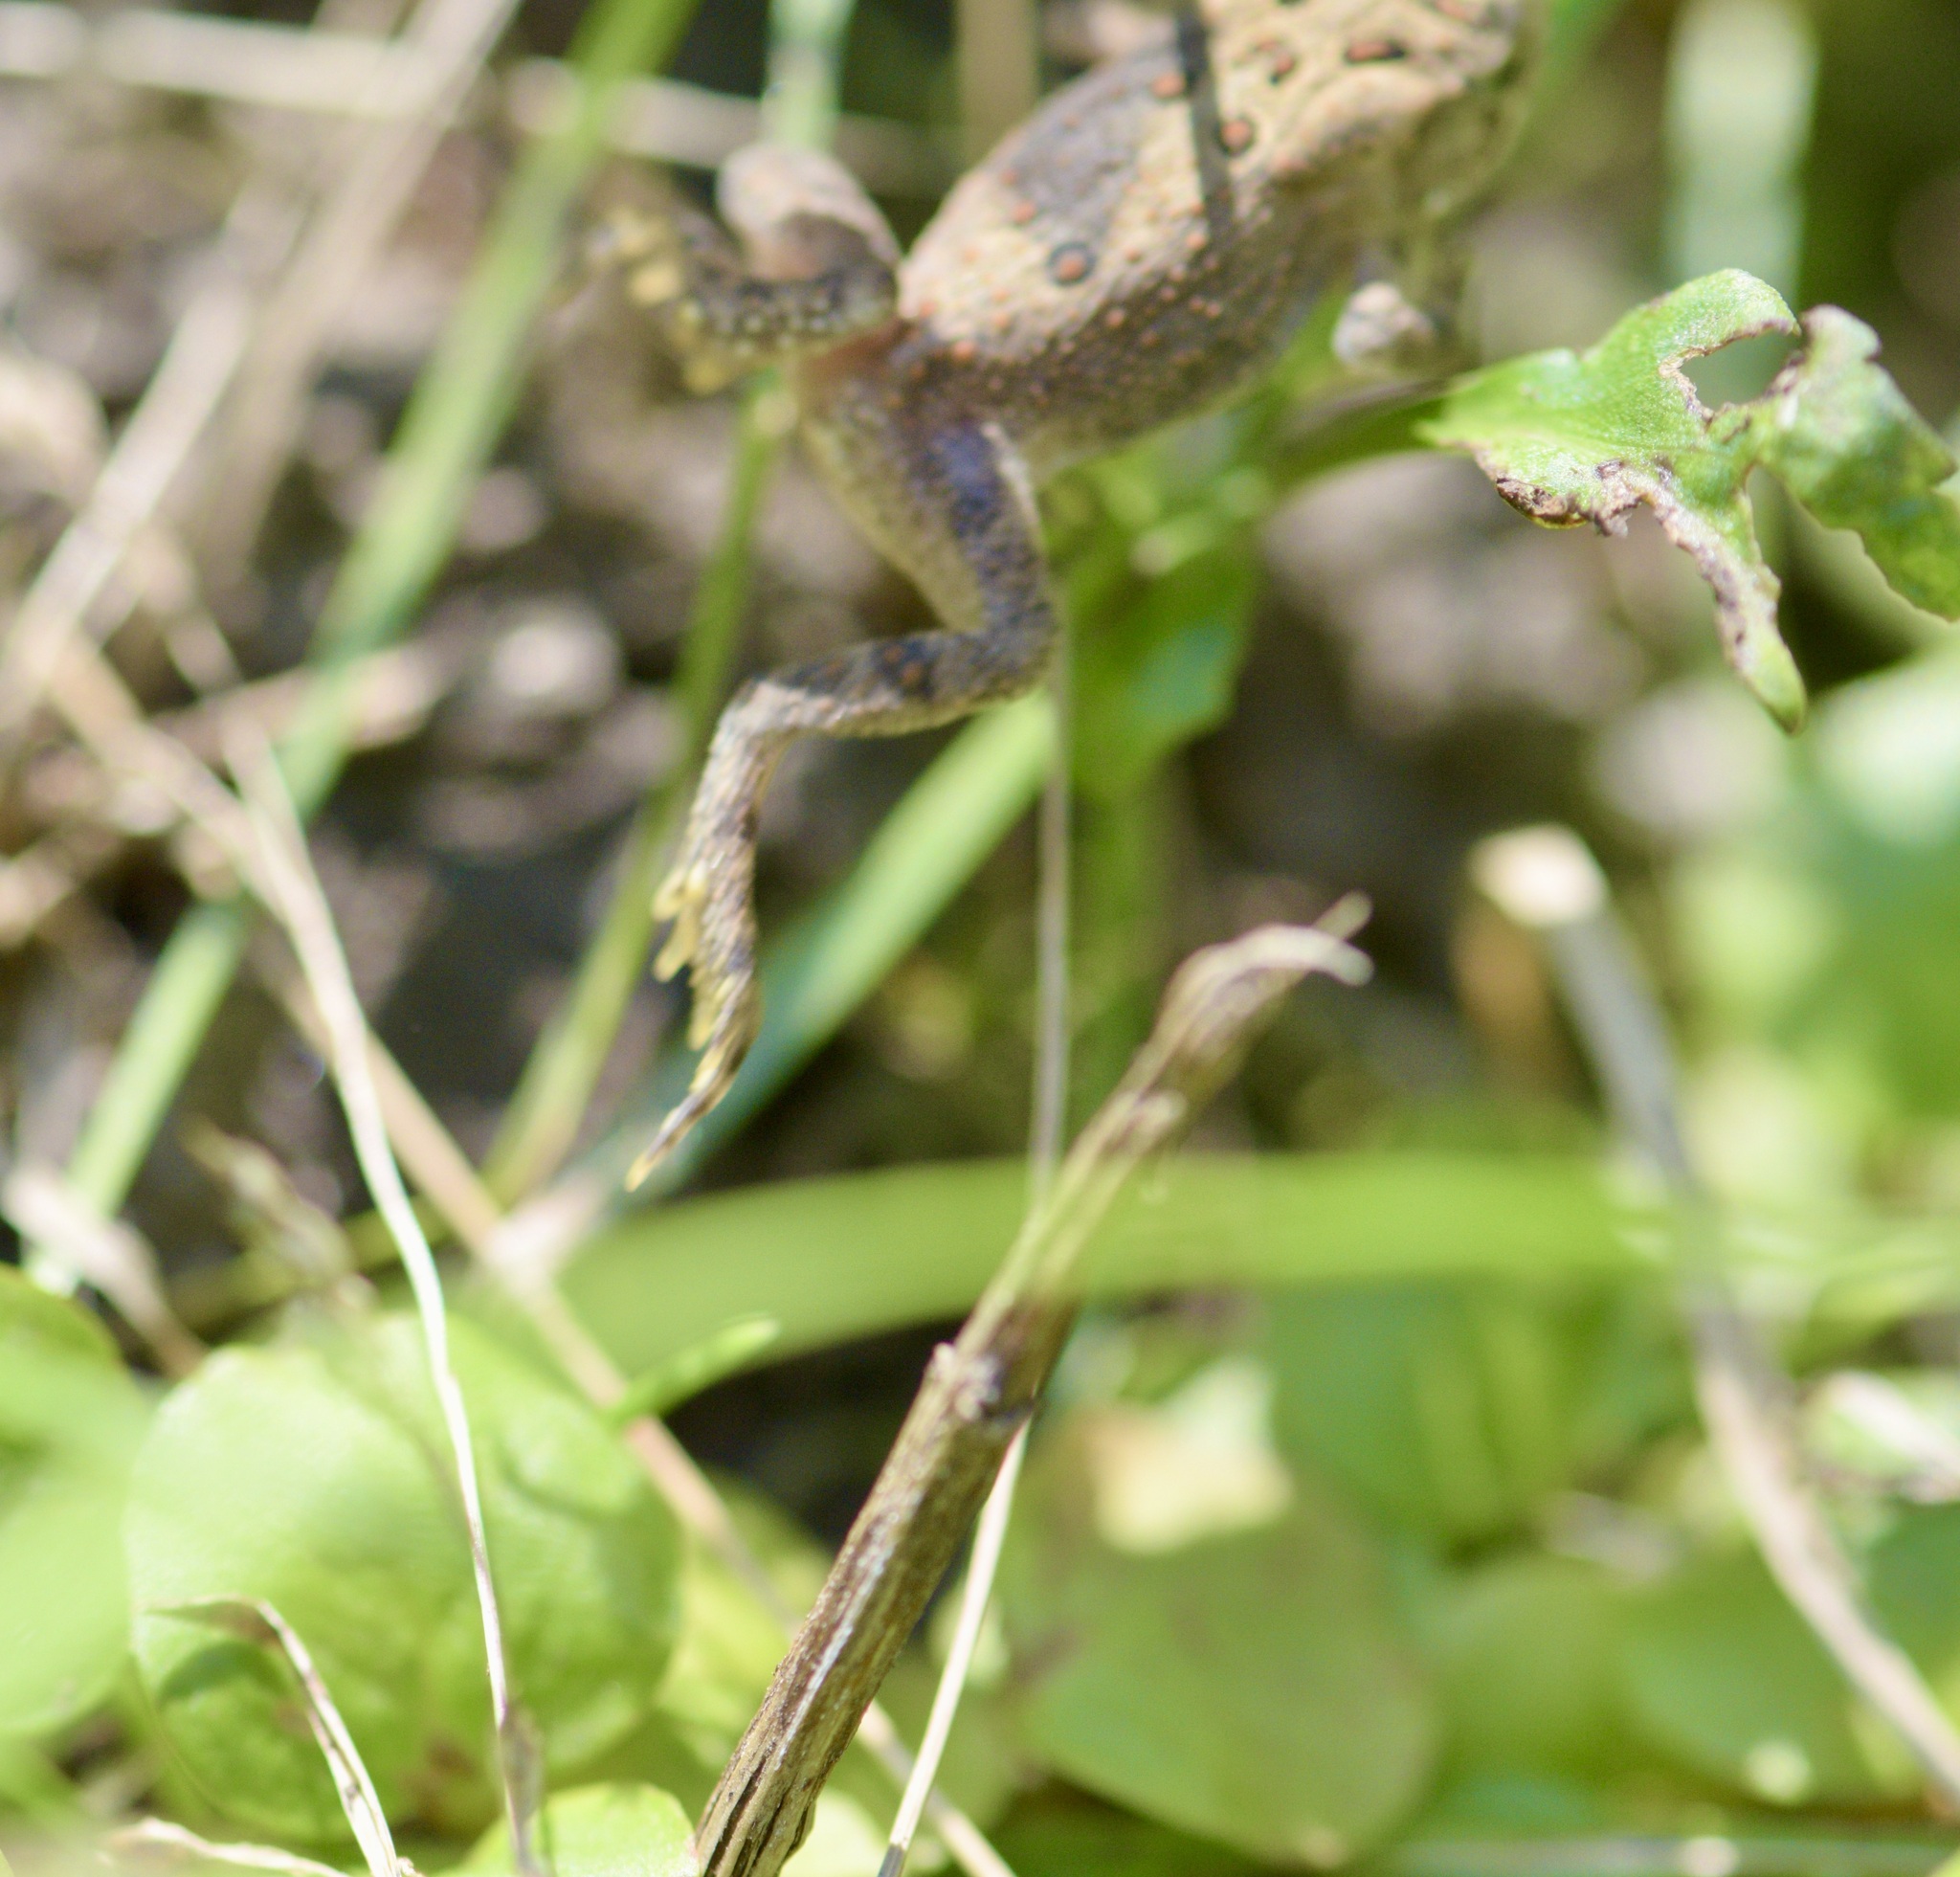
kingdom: Animalia
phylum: Chordata
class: Amphibia
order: Anura
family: Bufonidae
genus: Anaxyrus
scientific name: Anaxyrus americanus
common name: American toad
